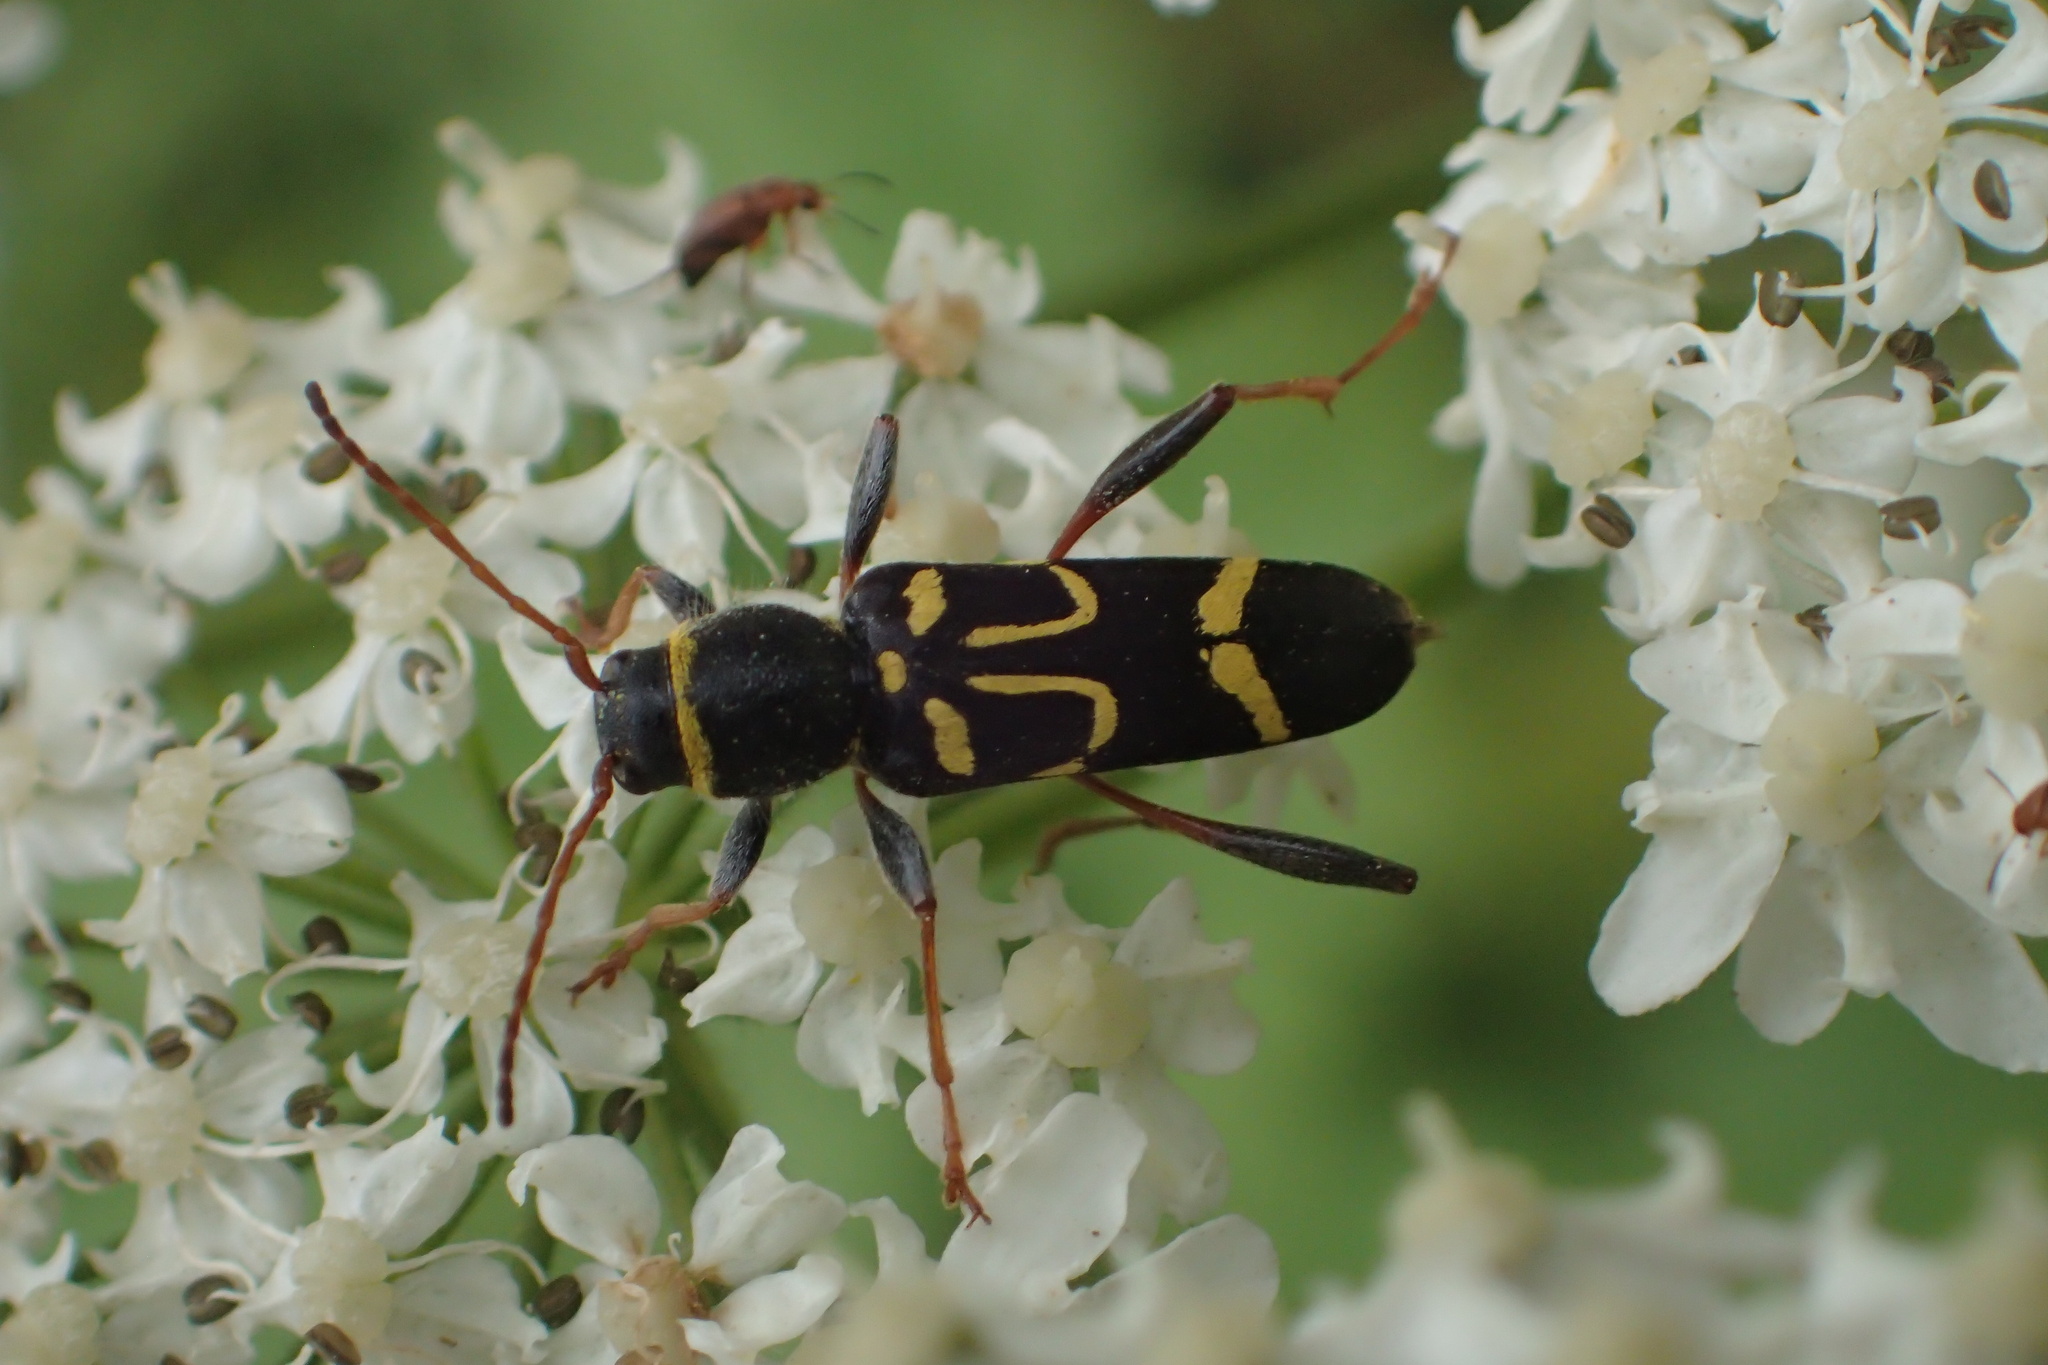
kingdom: Animalia
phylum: Arthropoda
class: Insecta
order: Coleoptera
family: Cerambycidae
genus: Clytus
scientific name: Clytus ruricola
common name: Round-necked longhorn beetle
